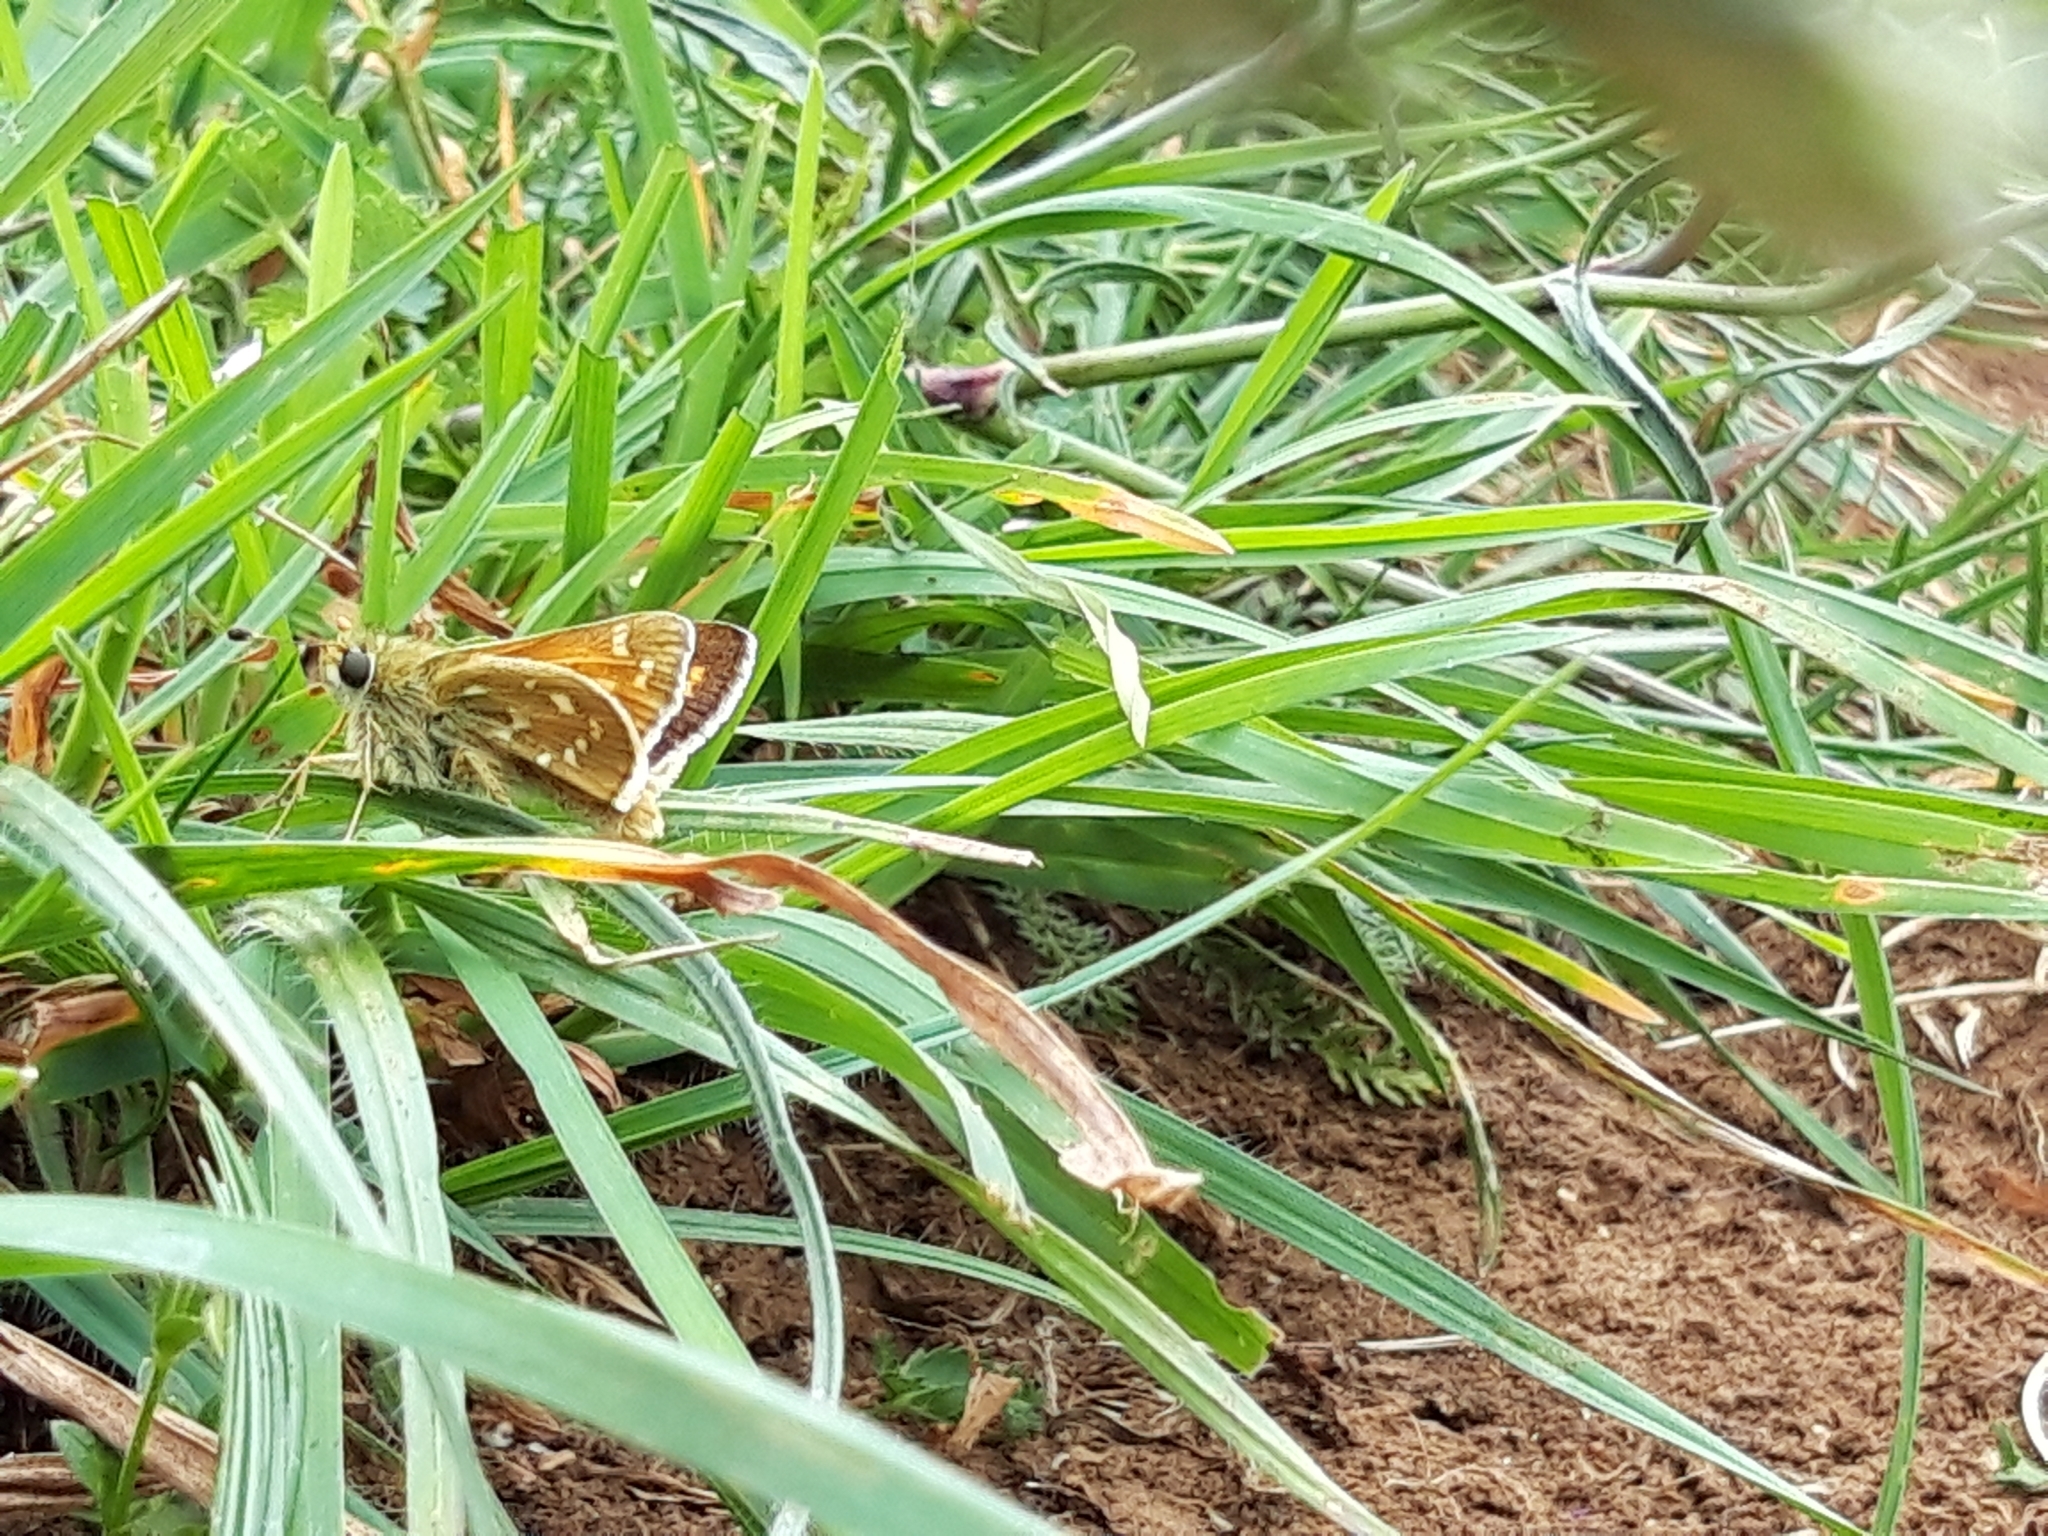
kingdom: Animalia
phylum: Arthropoda
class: Insecta
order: Lepidoptera
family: Hesperiidae
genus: Hesperia
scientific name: Hesperia comma
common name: Common branded skipper
